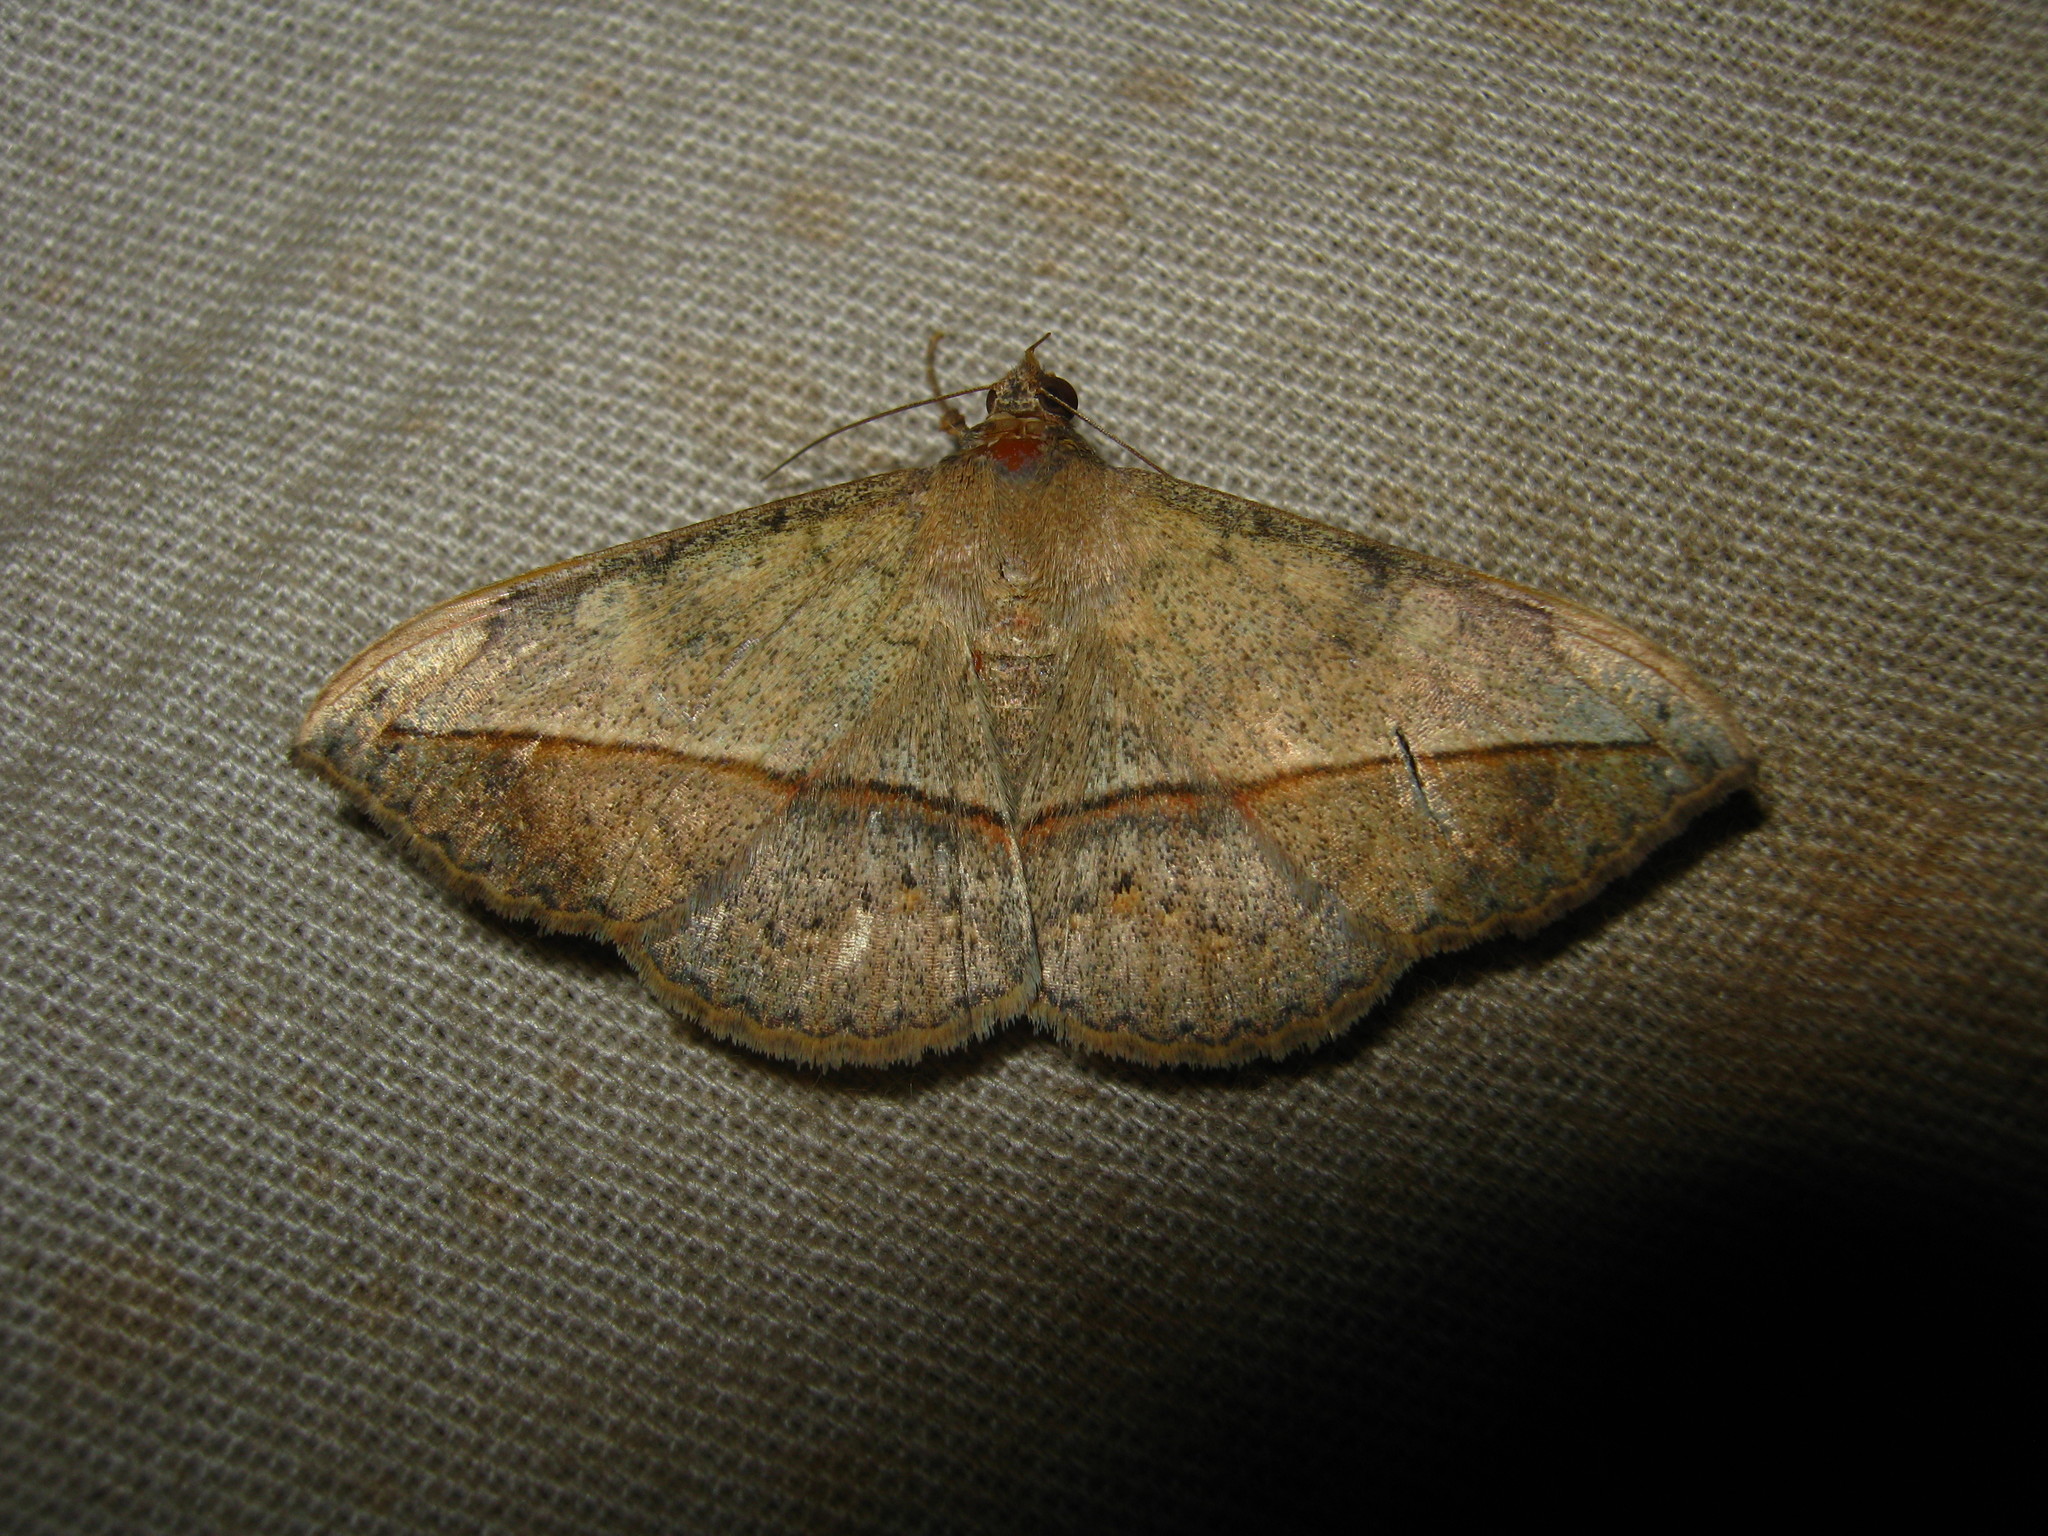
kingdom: Animalia
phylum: Arthropoda
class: Insecta
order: Lepidoptera
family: Erebidae
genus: Anticarsia
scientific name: Anticarsia gemmatalis
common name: Cutworm moth
